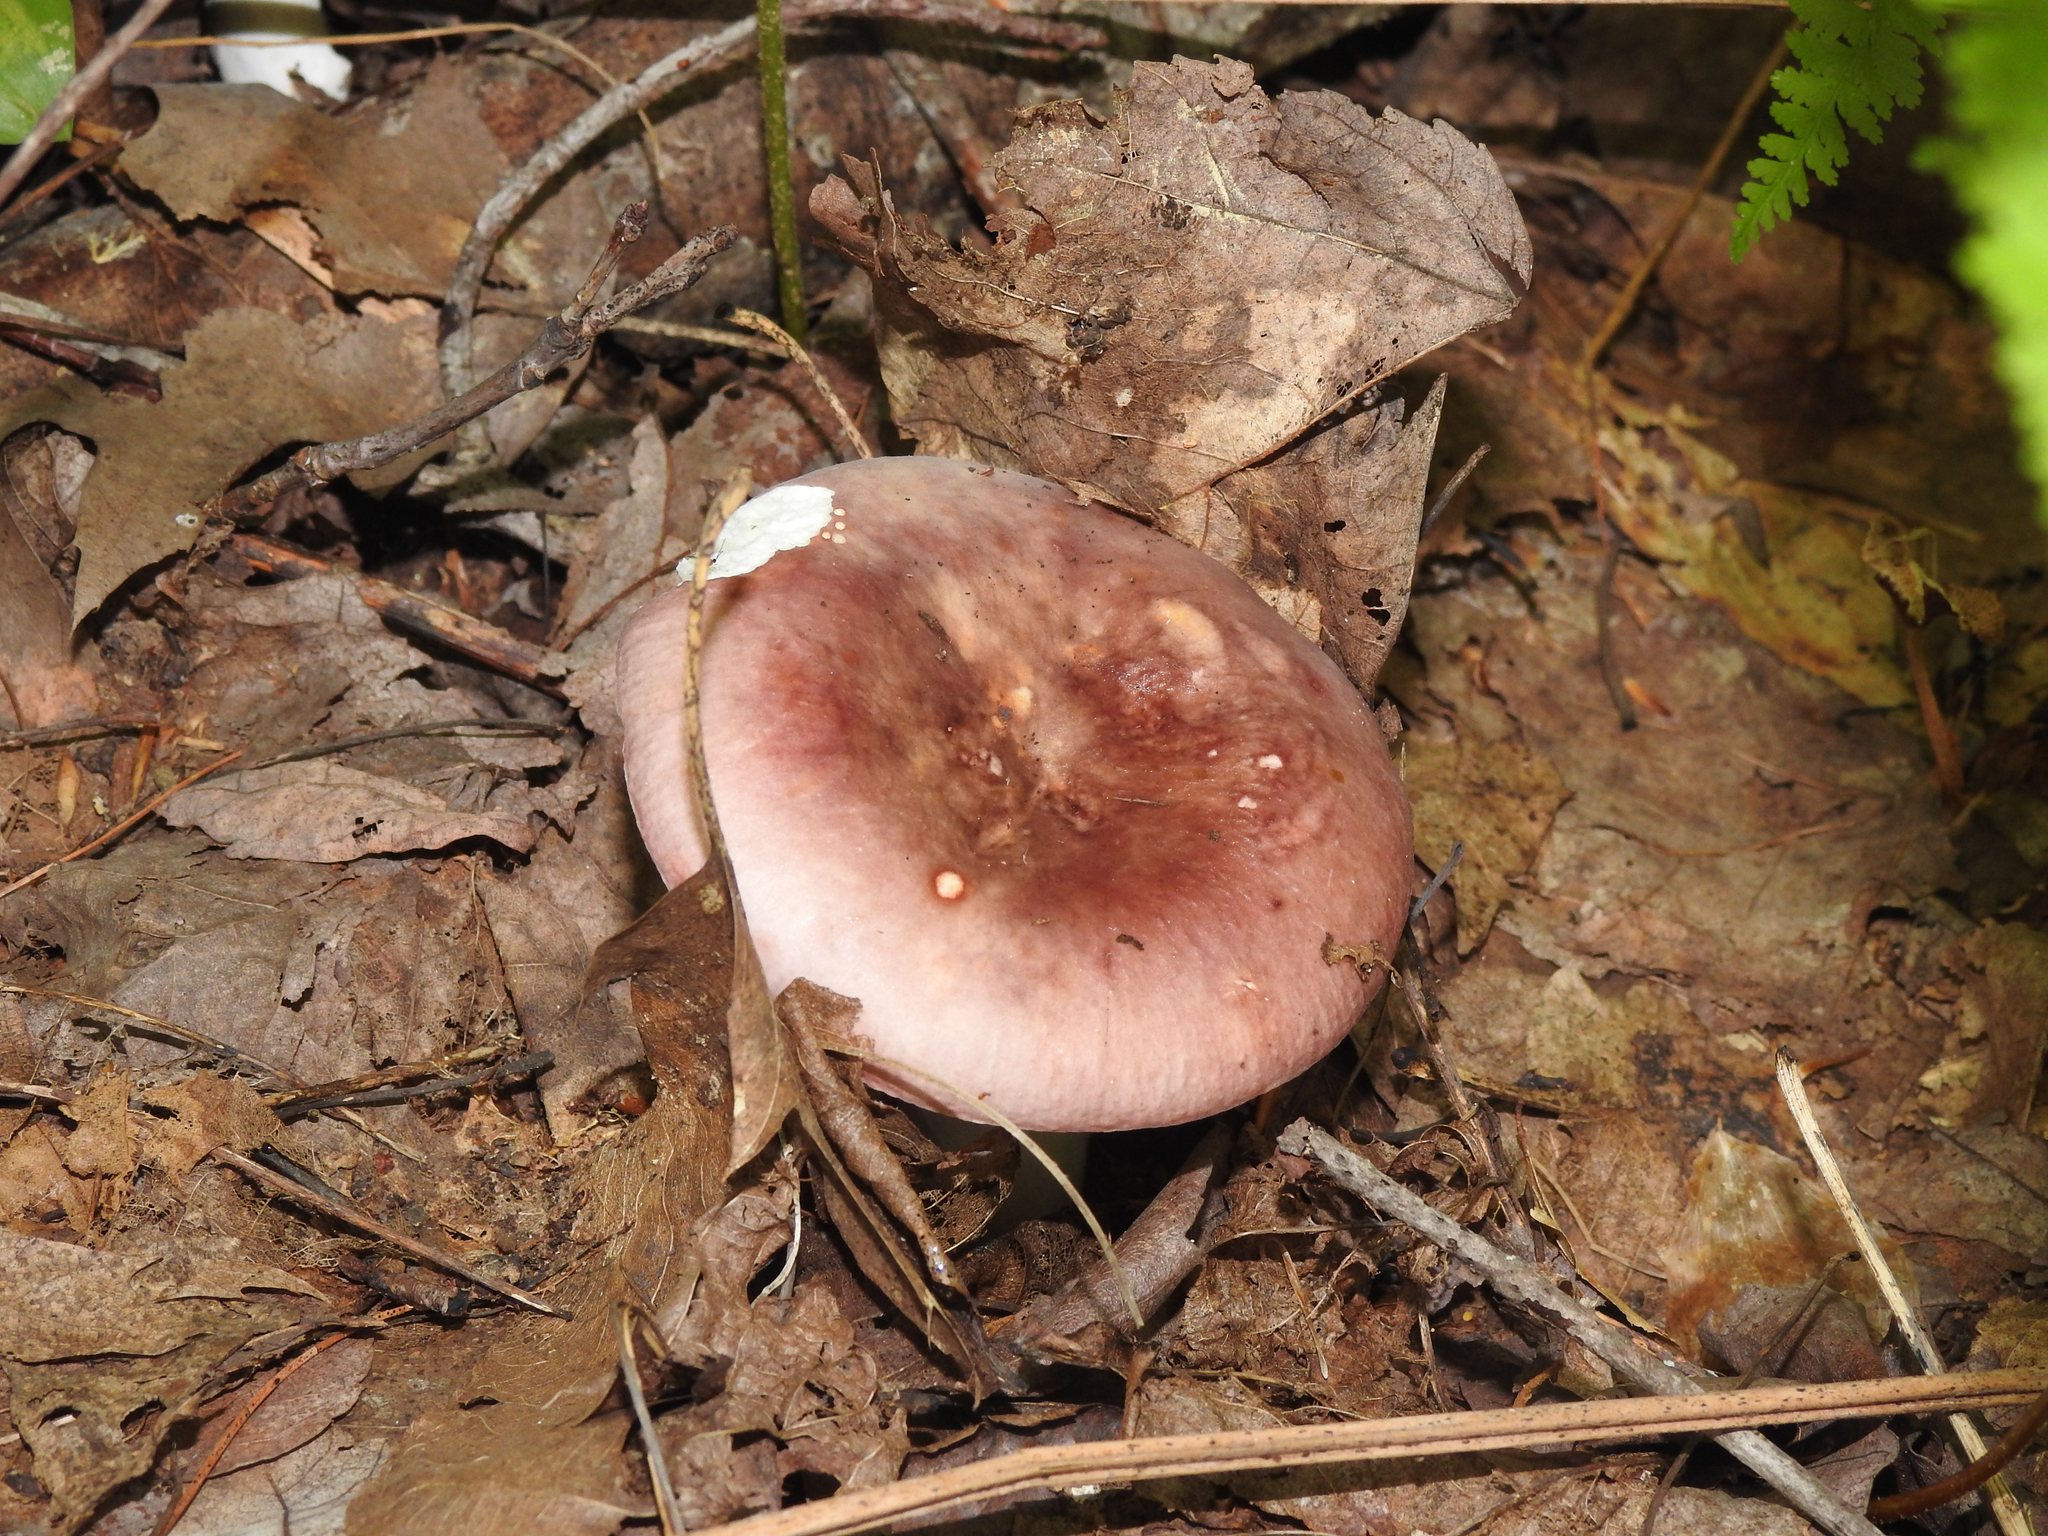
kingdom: Fungi
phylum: Basidiomycota
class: Agaricomycetes
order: Russulales
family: Russulaceae
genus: Russula
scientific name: Russula
